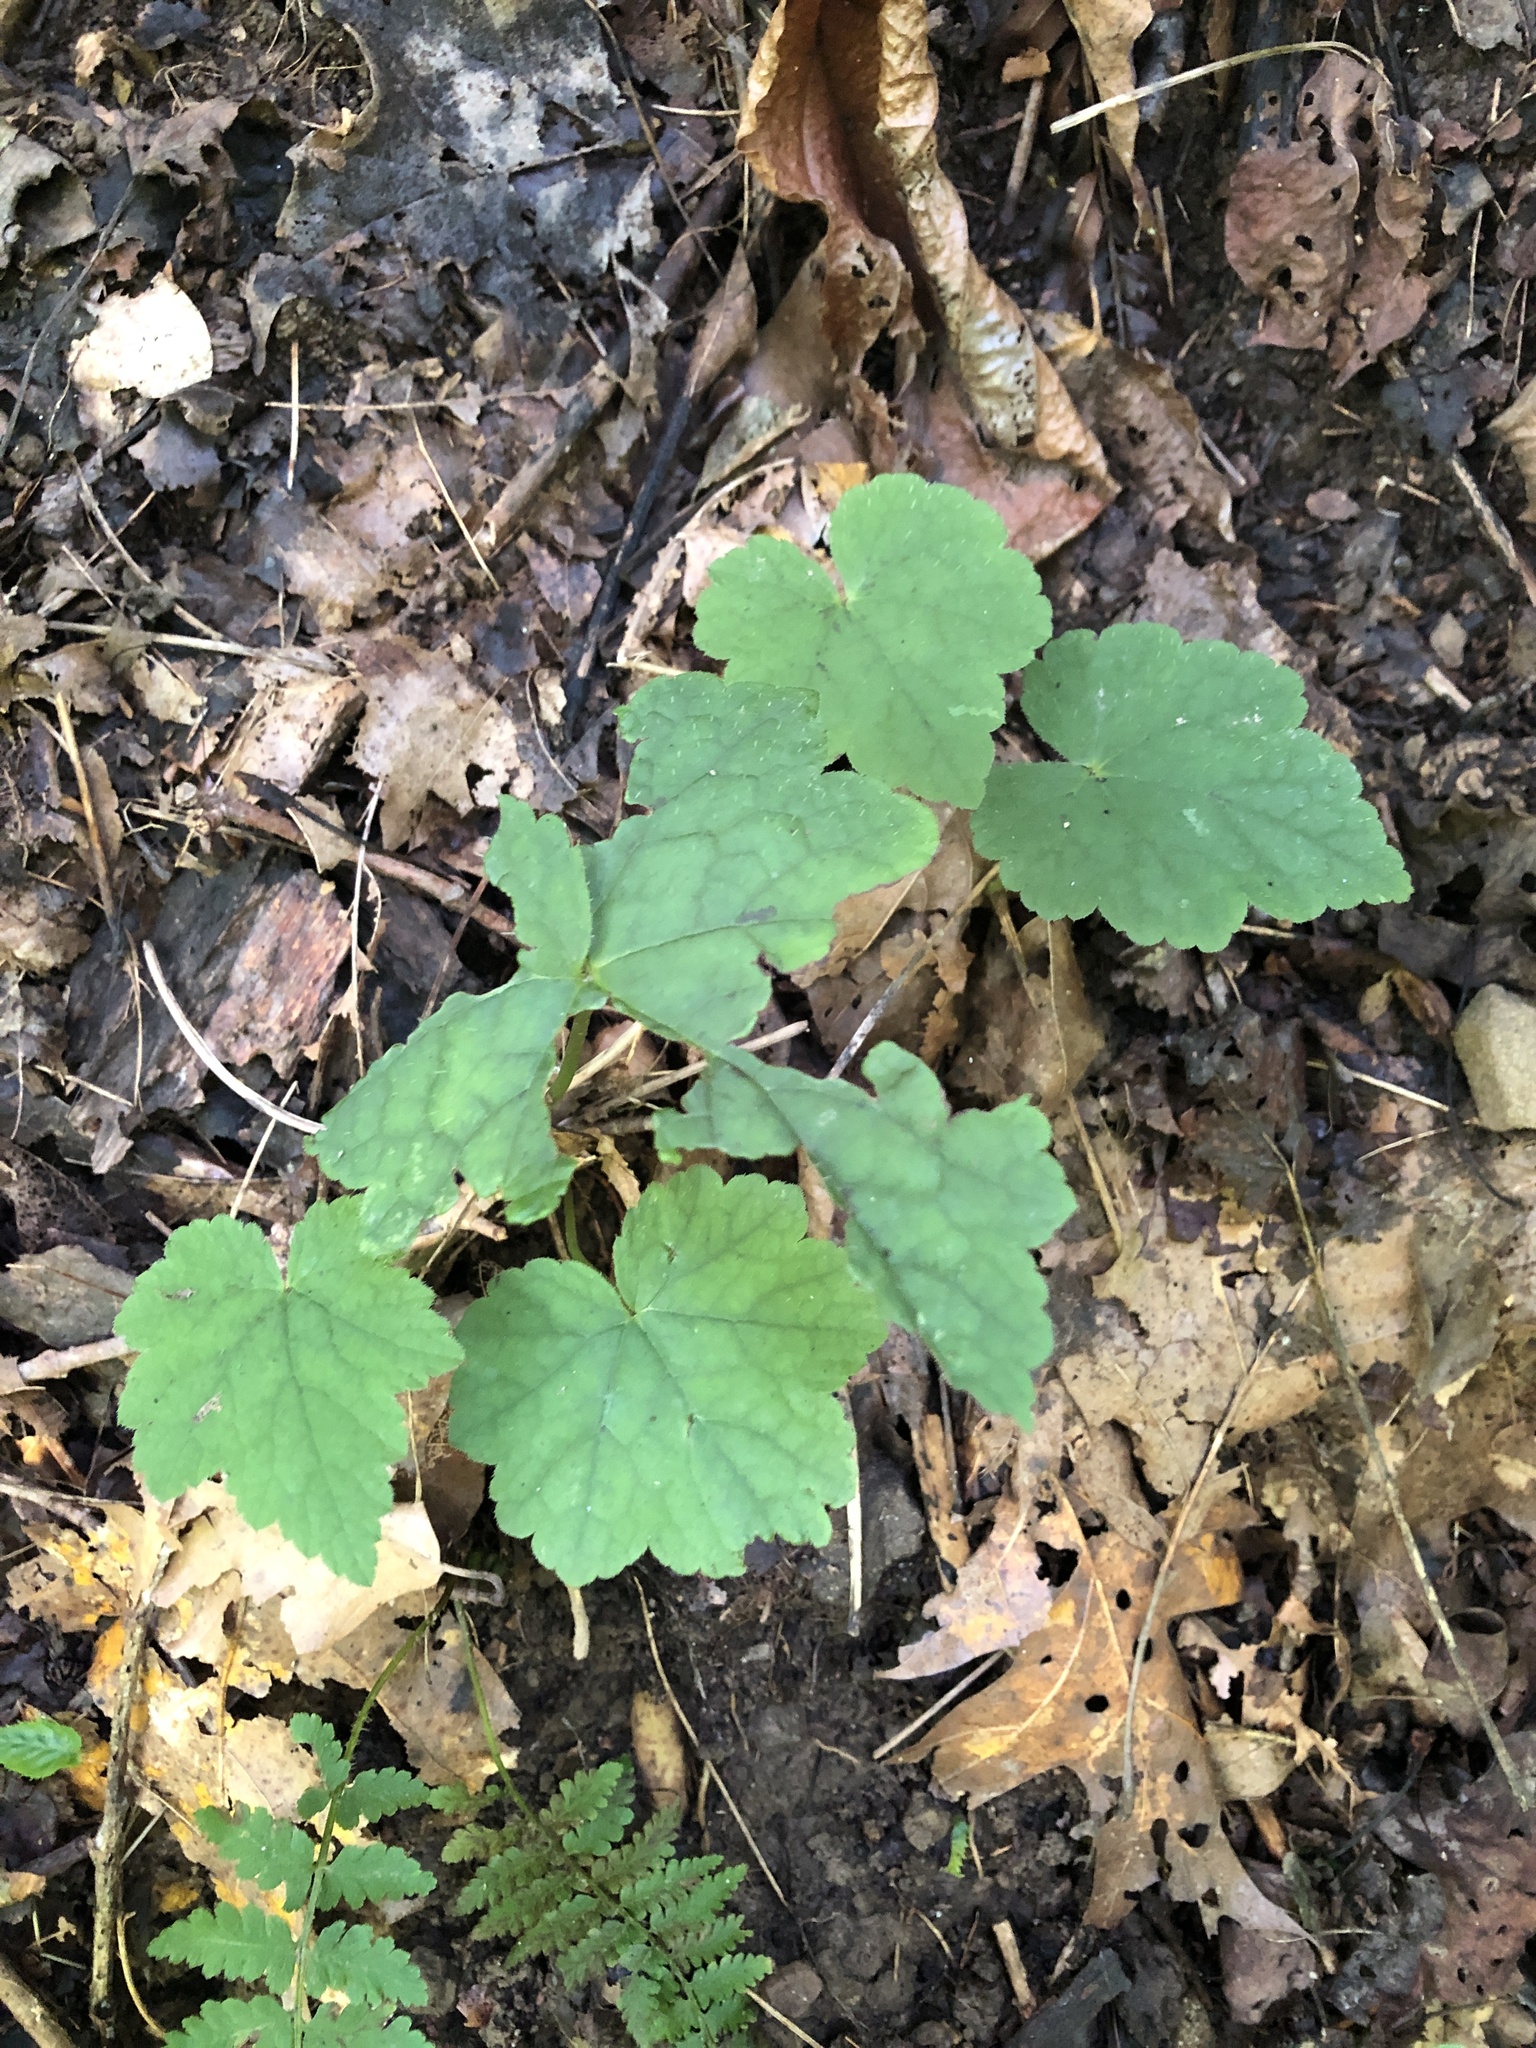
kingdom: Plantae
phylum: Tracheophyta
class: Magnoliopsida
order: Saxifragales
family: Saxifragaceae
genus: Tiarella
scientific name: Tiarella stolonifera
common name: Stoloniferous foamflower
